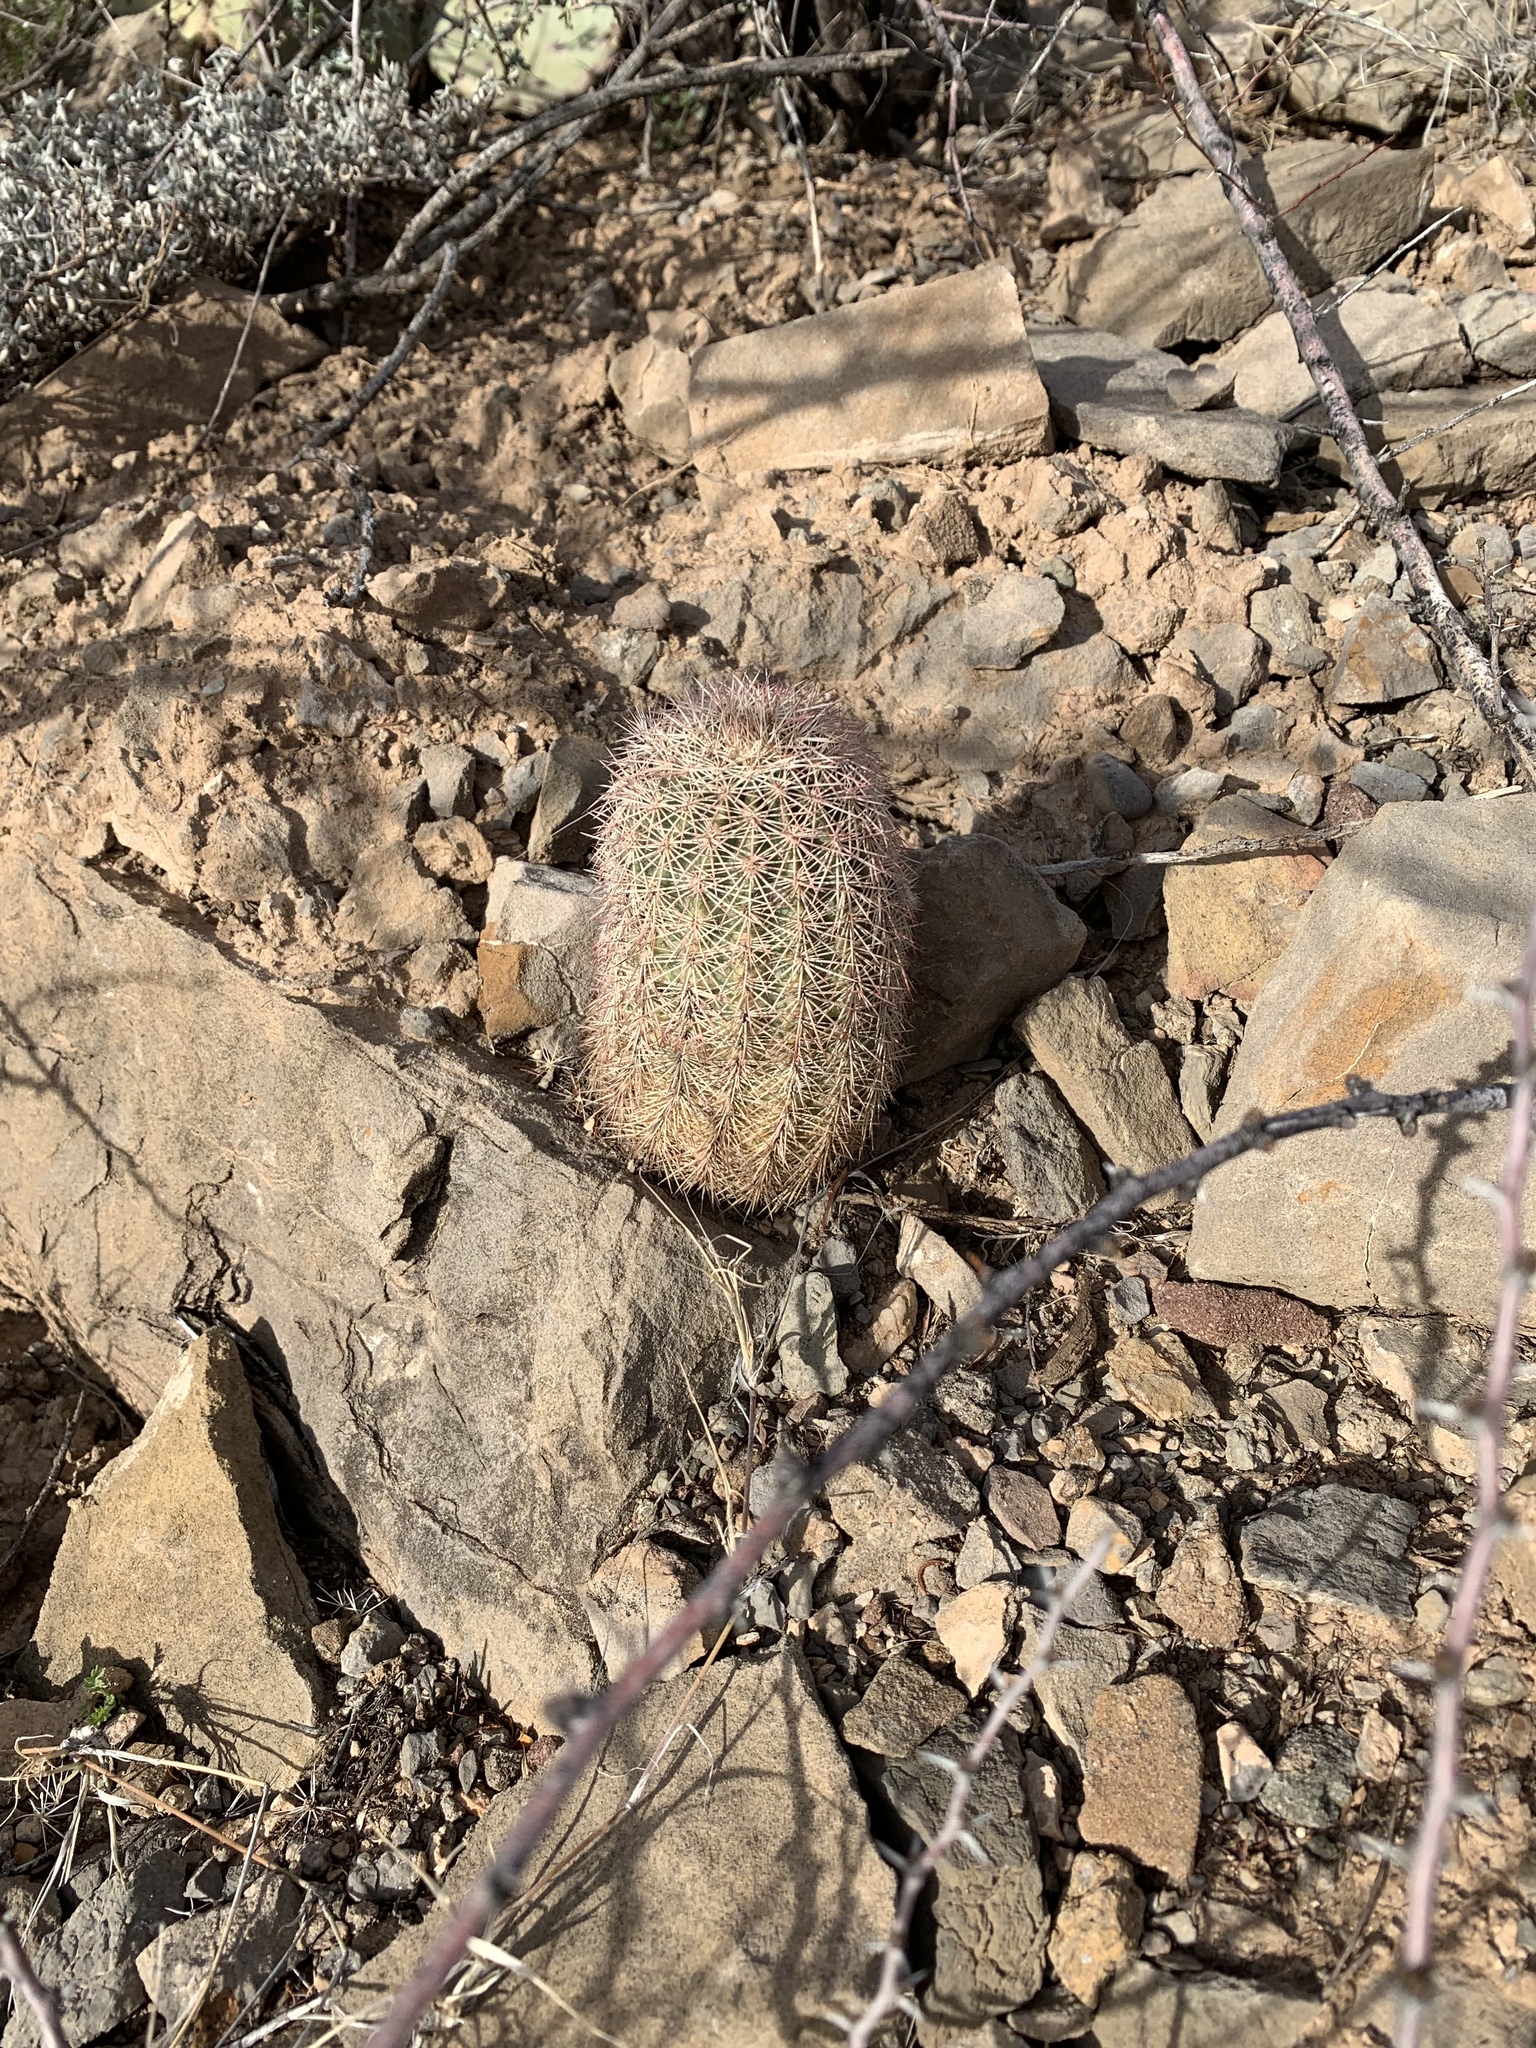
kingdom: Plantae
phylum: Tracheophyta
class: Magnoliopsida
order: Caryophyllales
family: Cactaceae
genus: Echinocereus
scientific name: Echinocereus dasyacanthus
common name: Spiny hedgehog cactus
